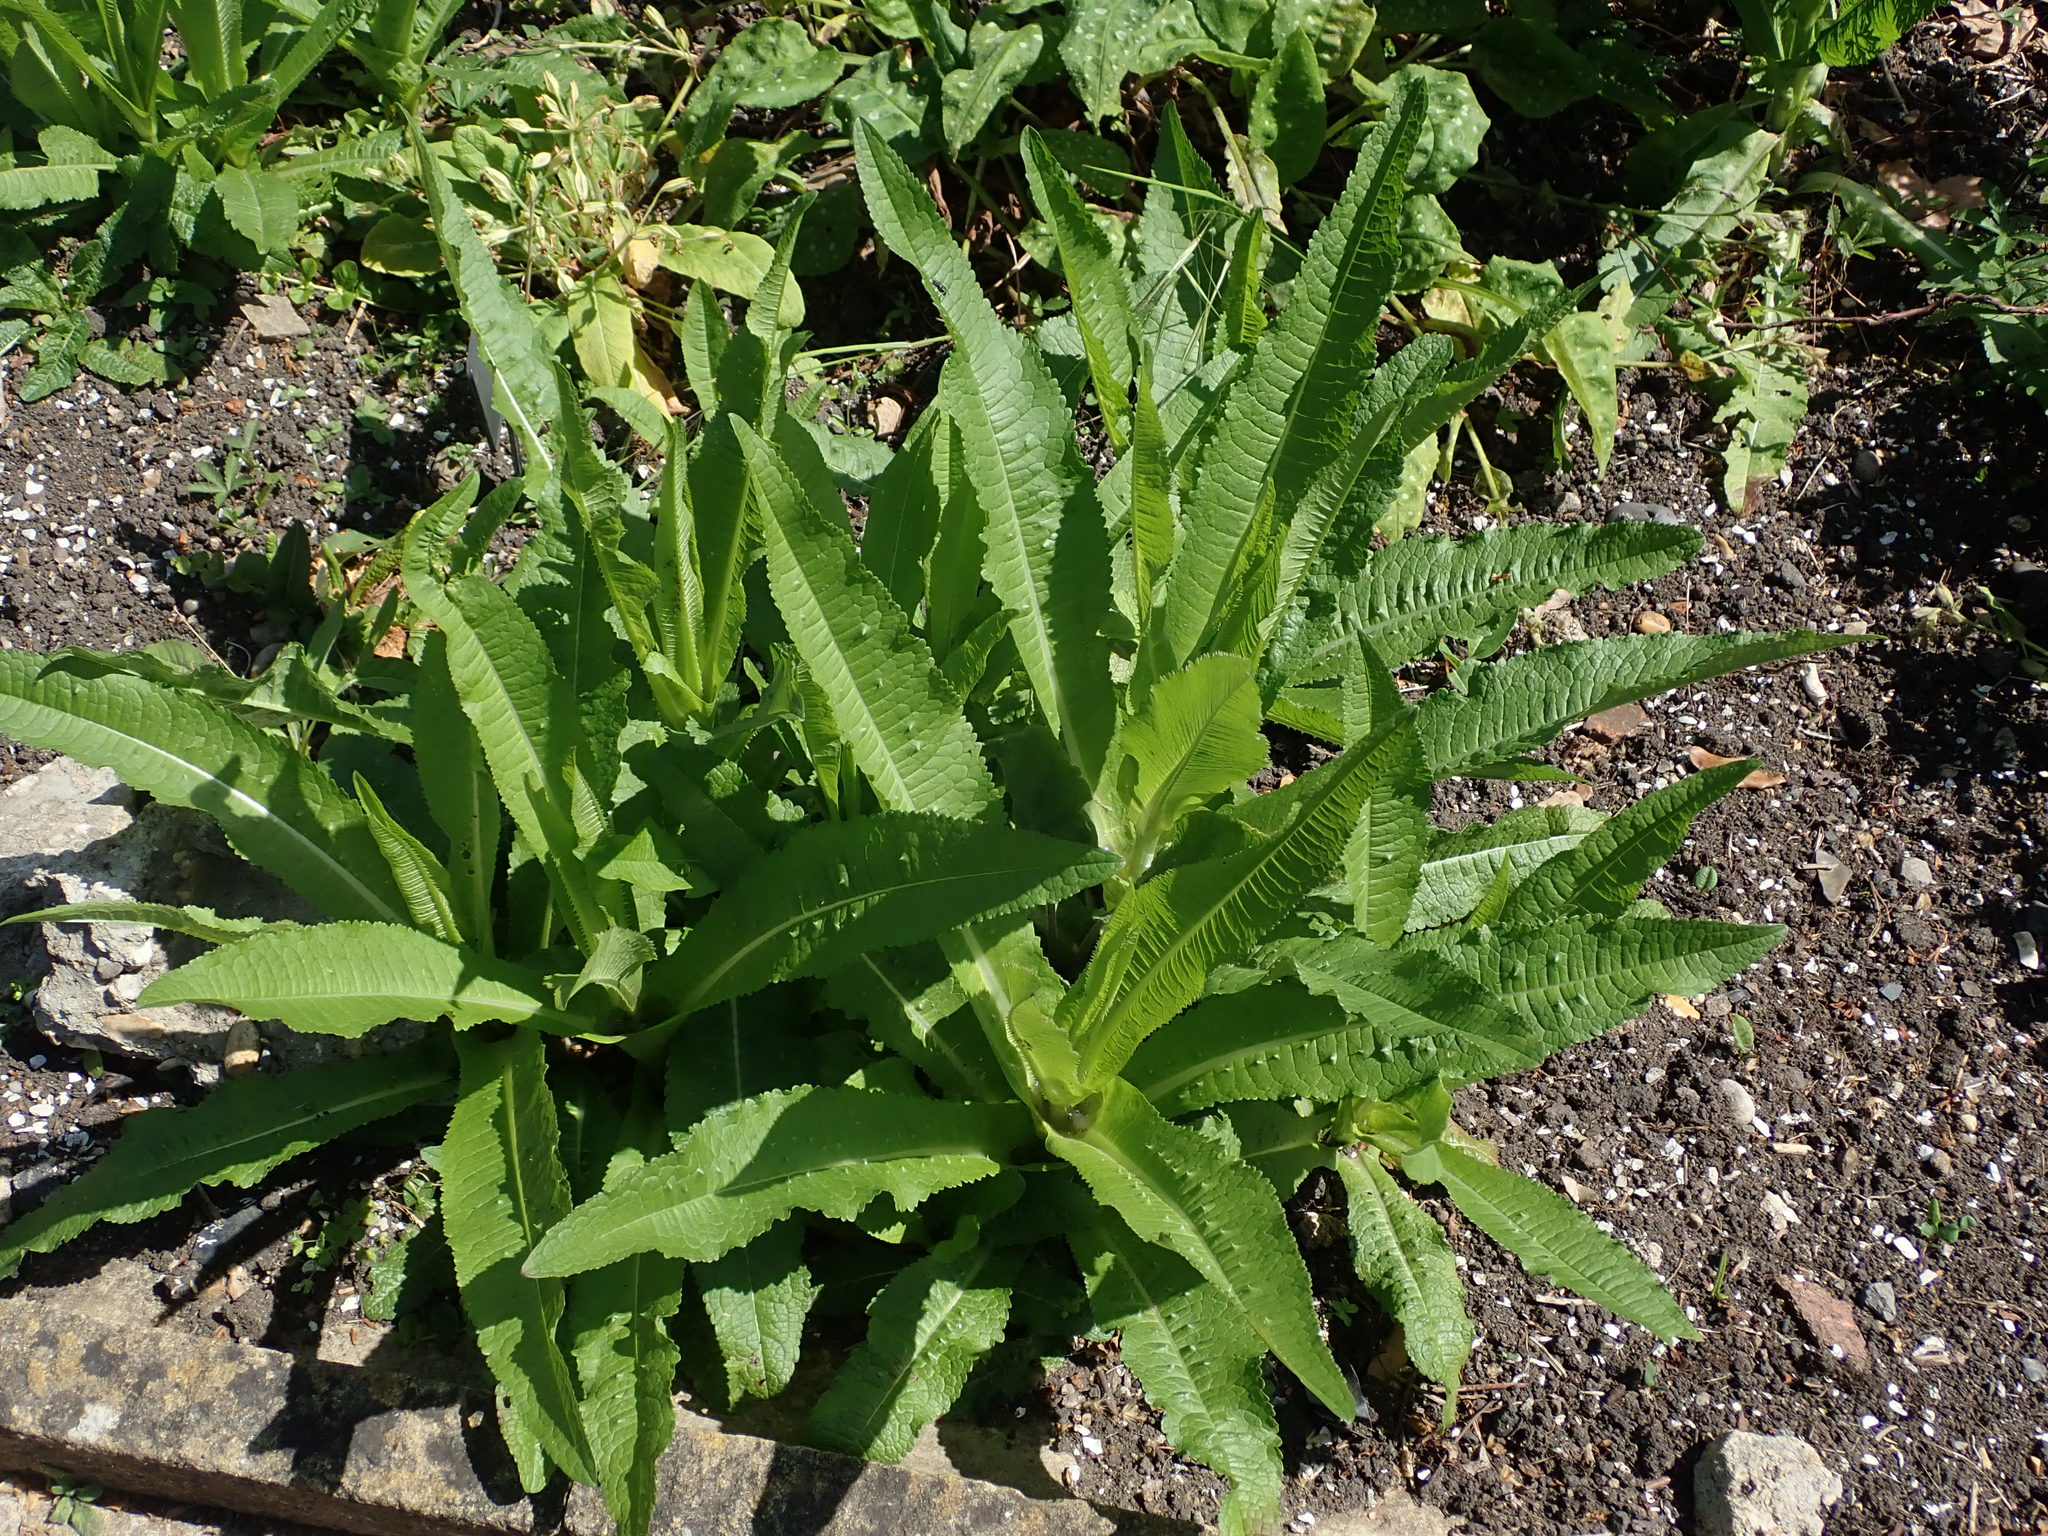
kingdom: Plantae
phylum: Tracheophyta
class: Magnoliopsida
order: Dipsacales
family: Caprifoliaceae
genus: Dipsacus
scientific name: Dipsacus fullonum
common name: Teasel
